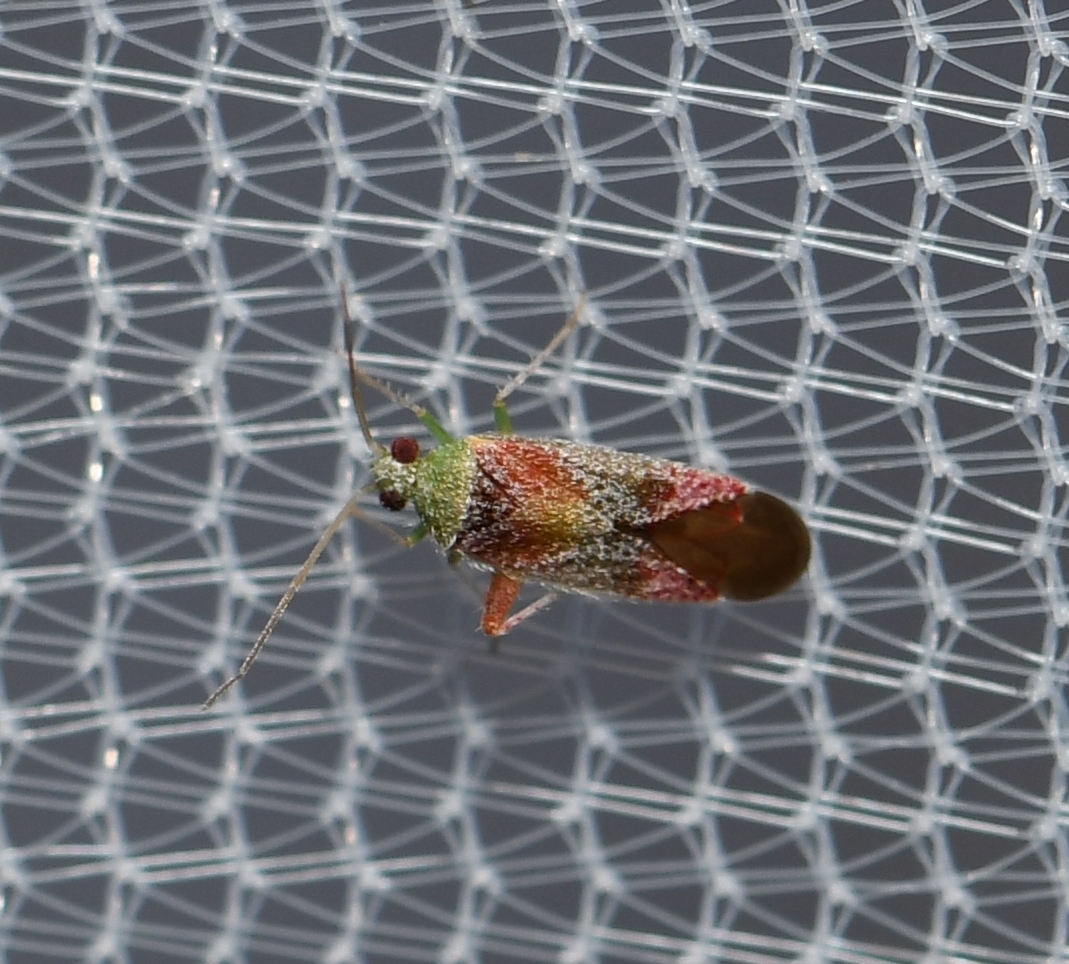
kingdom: Animalia
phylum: Arthropoda
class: Insecta
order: Hemiptera
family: Miridae
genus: Parthenicus
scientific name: Parthenicus pictus
